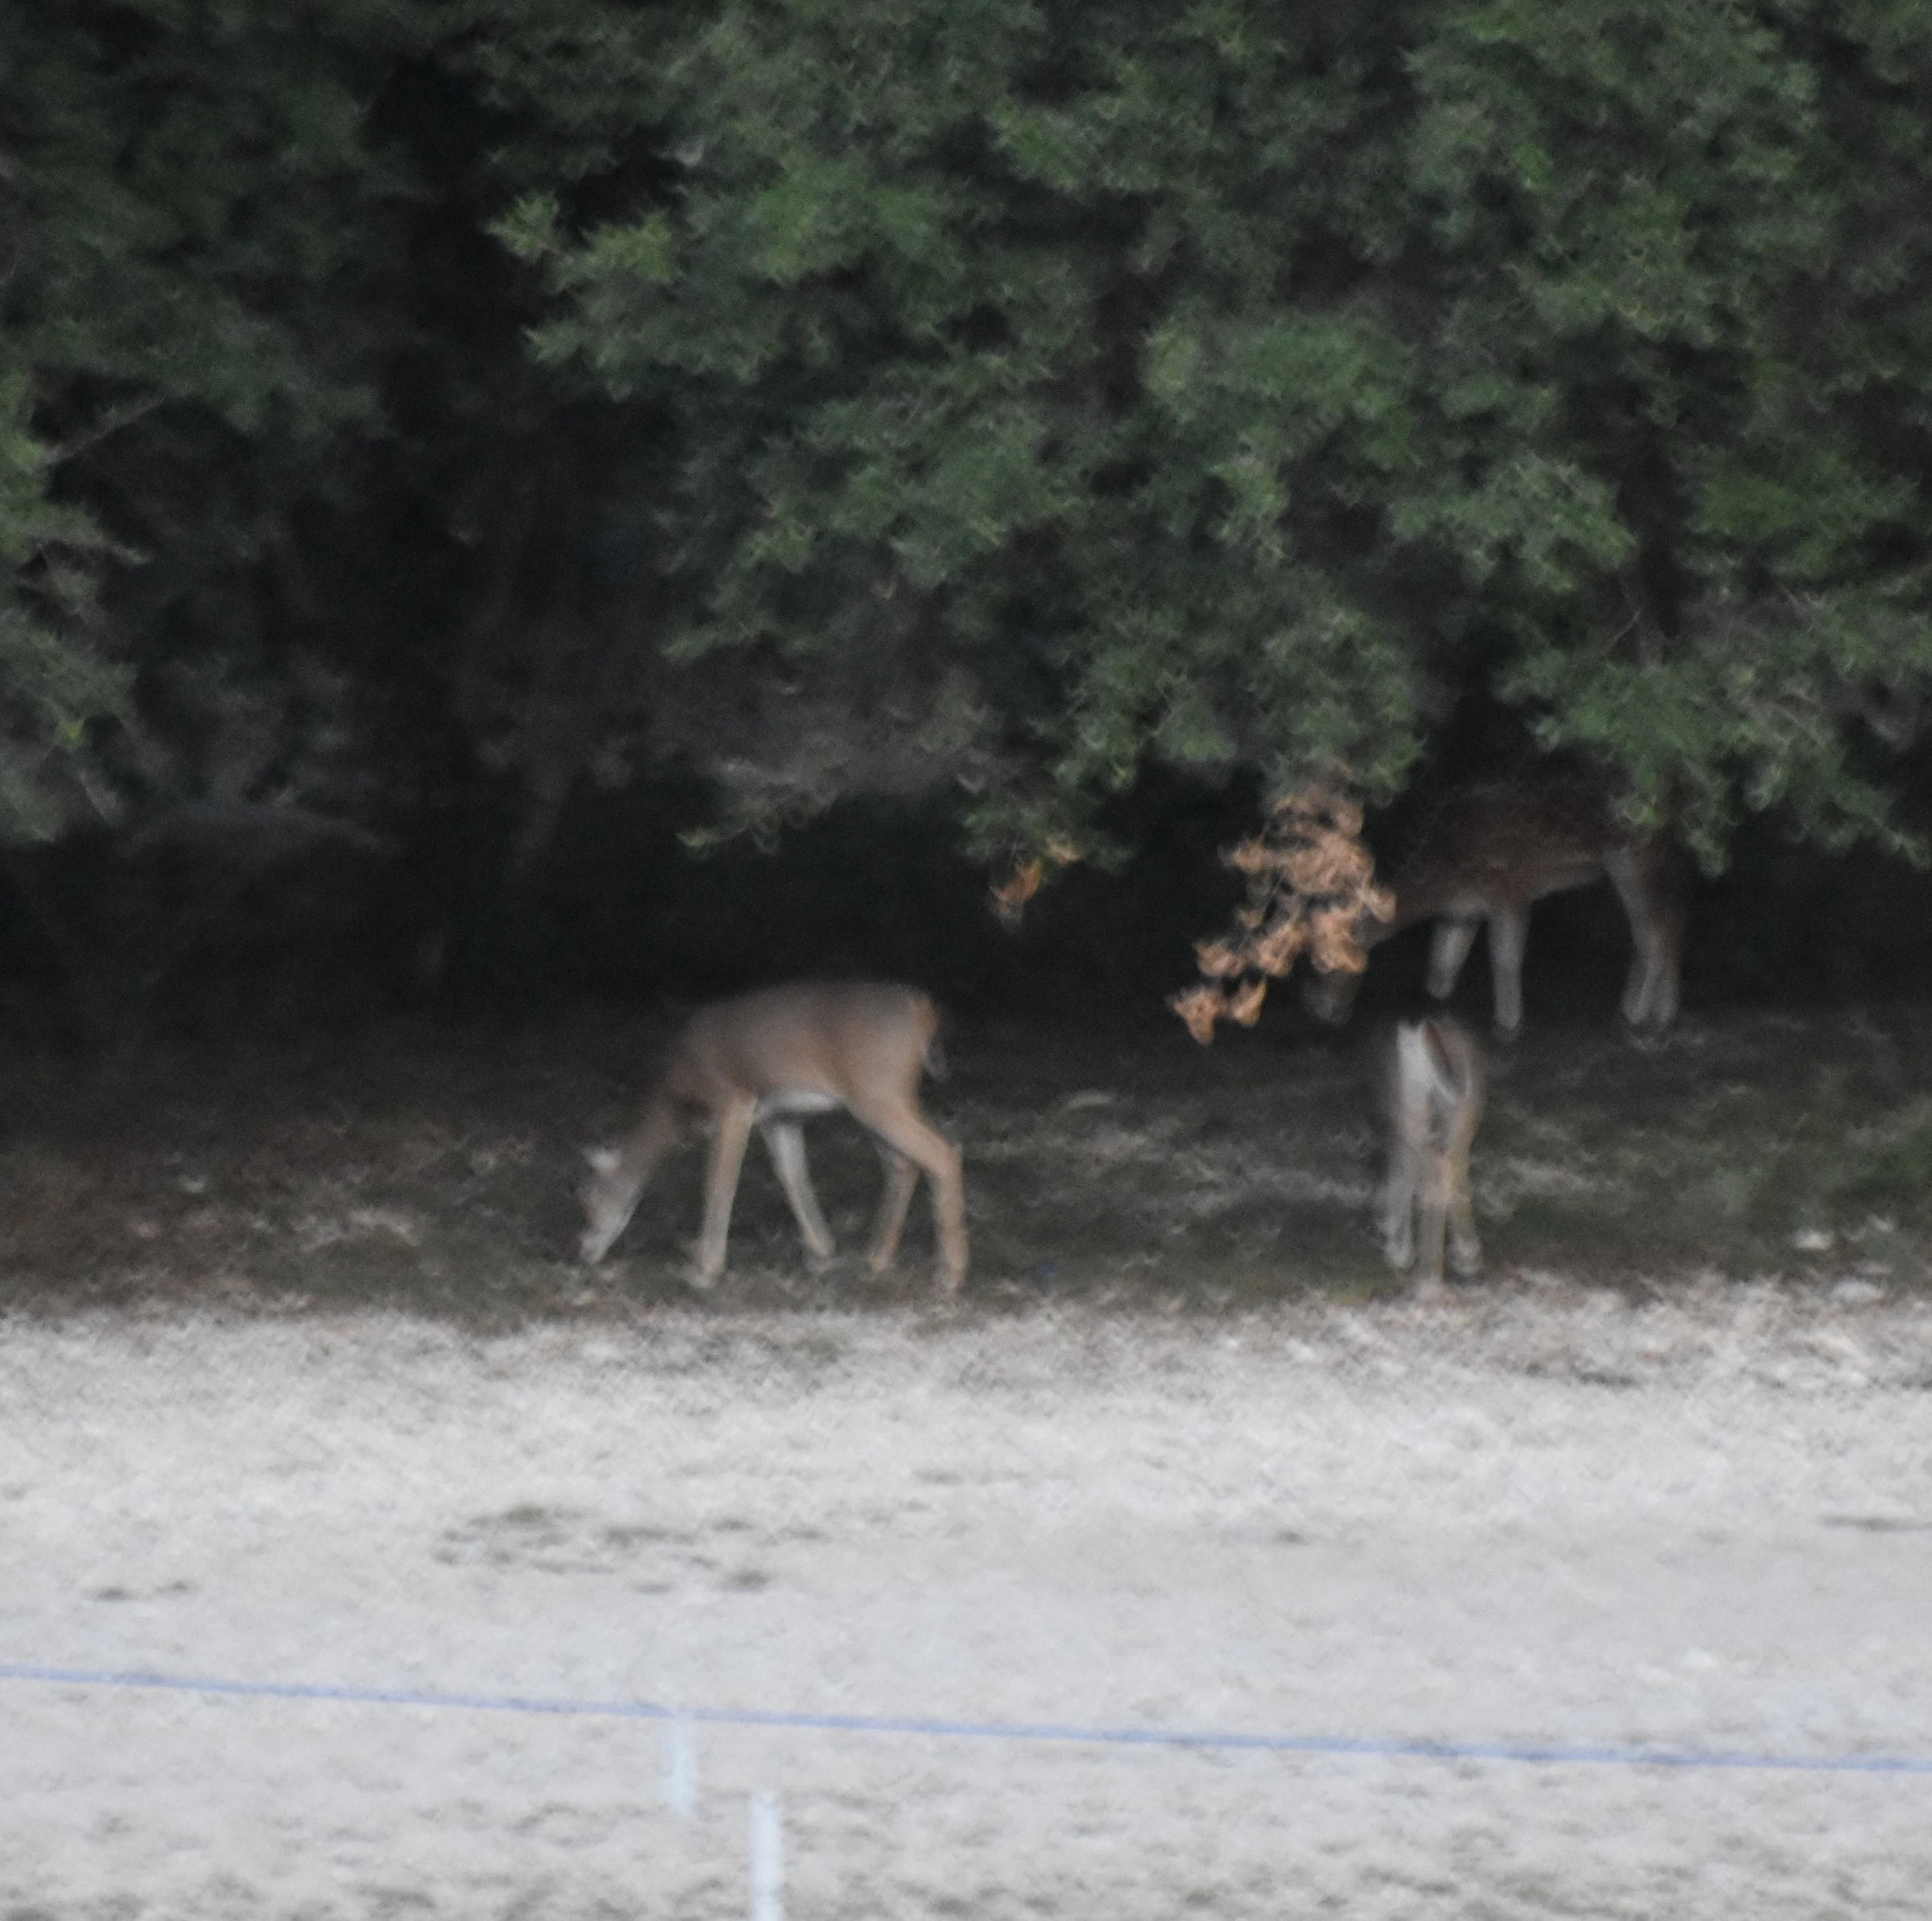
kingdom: Animalia
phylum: Chordata
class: Mammalia
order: Artiodactyla
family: Cervidae
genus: Odocoileus
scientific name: Odocoileus virginianus
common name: White-tailed deer
